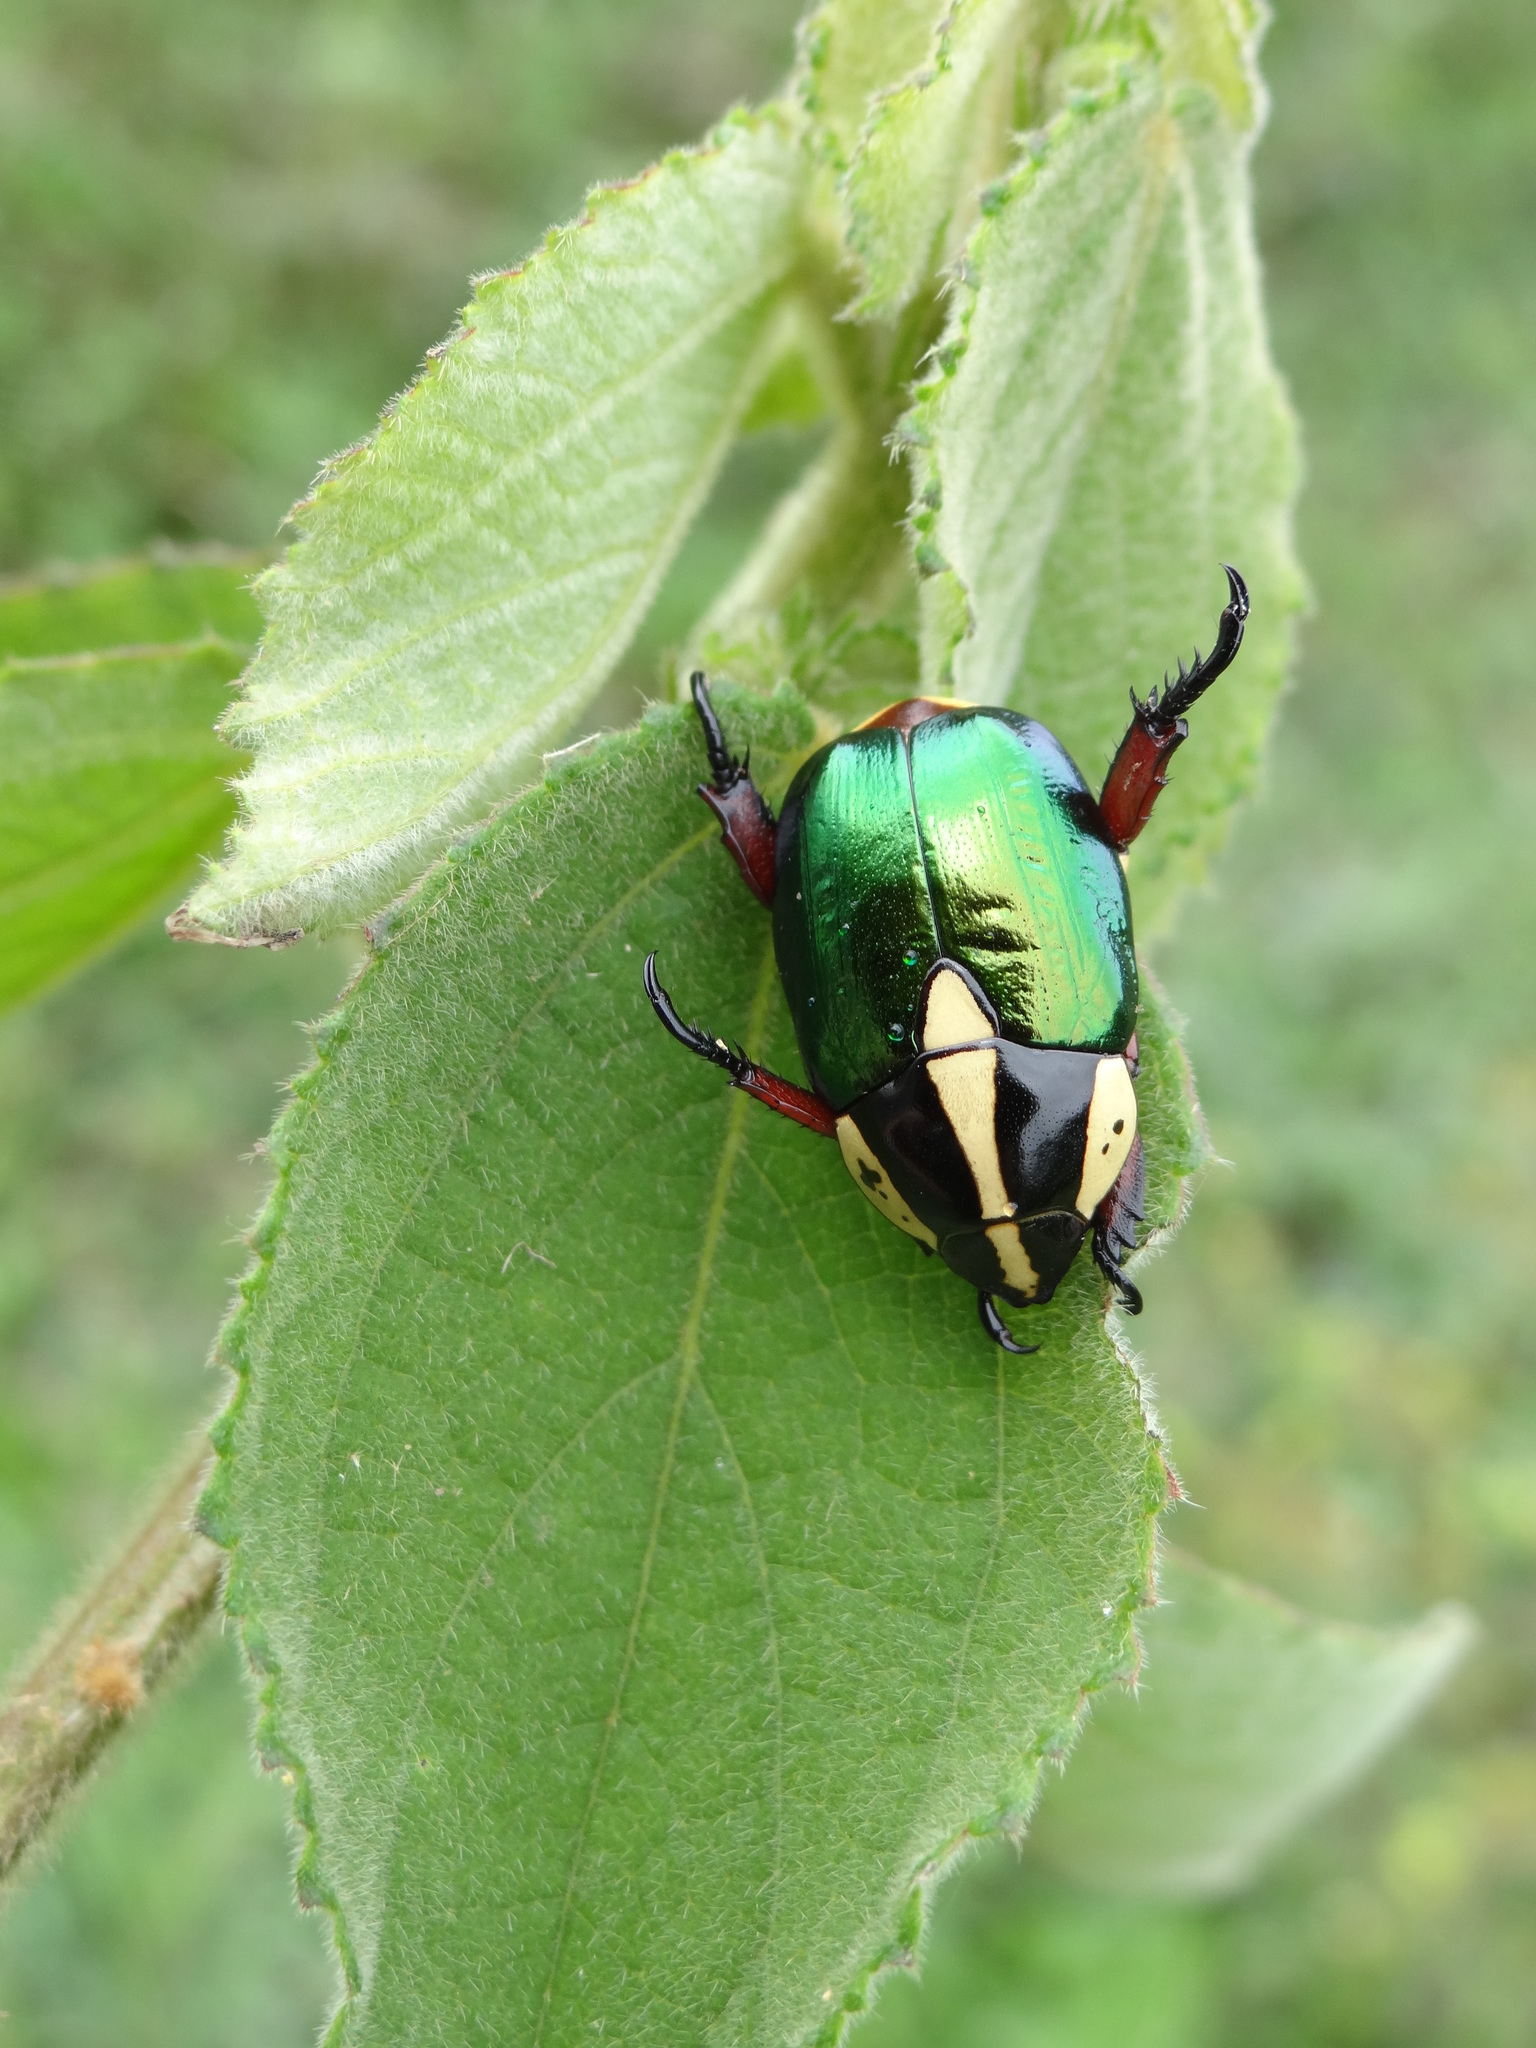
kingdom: Animalia
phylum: Arthropoda
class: Insecta
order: Coleoptera
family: Scarabaeidae
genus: Rutela
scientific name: Rutela laeta
